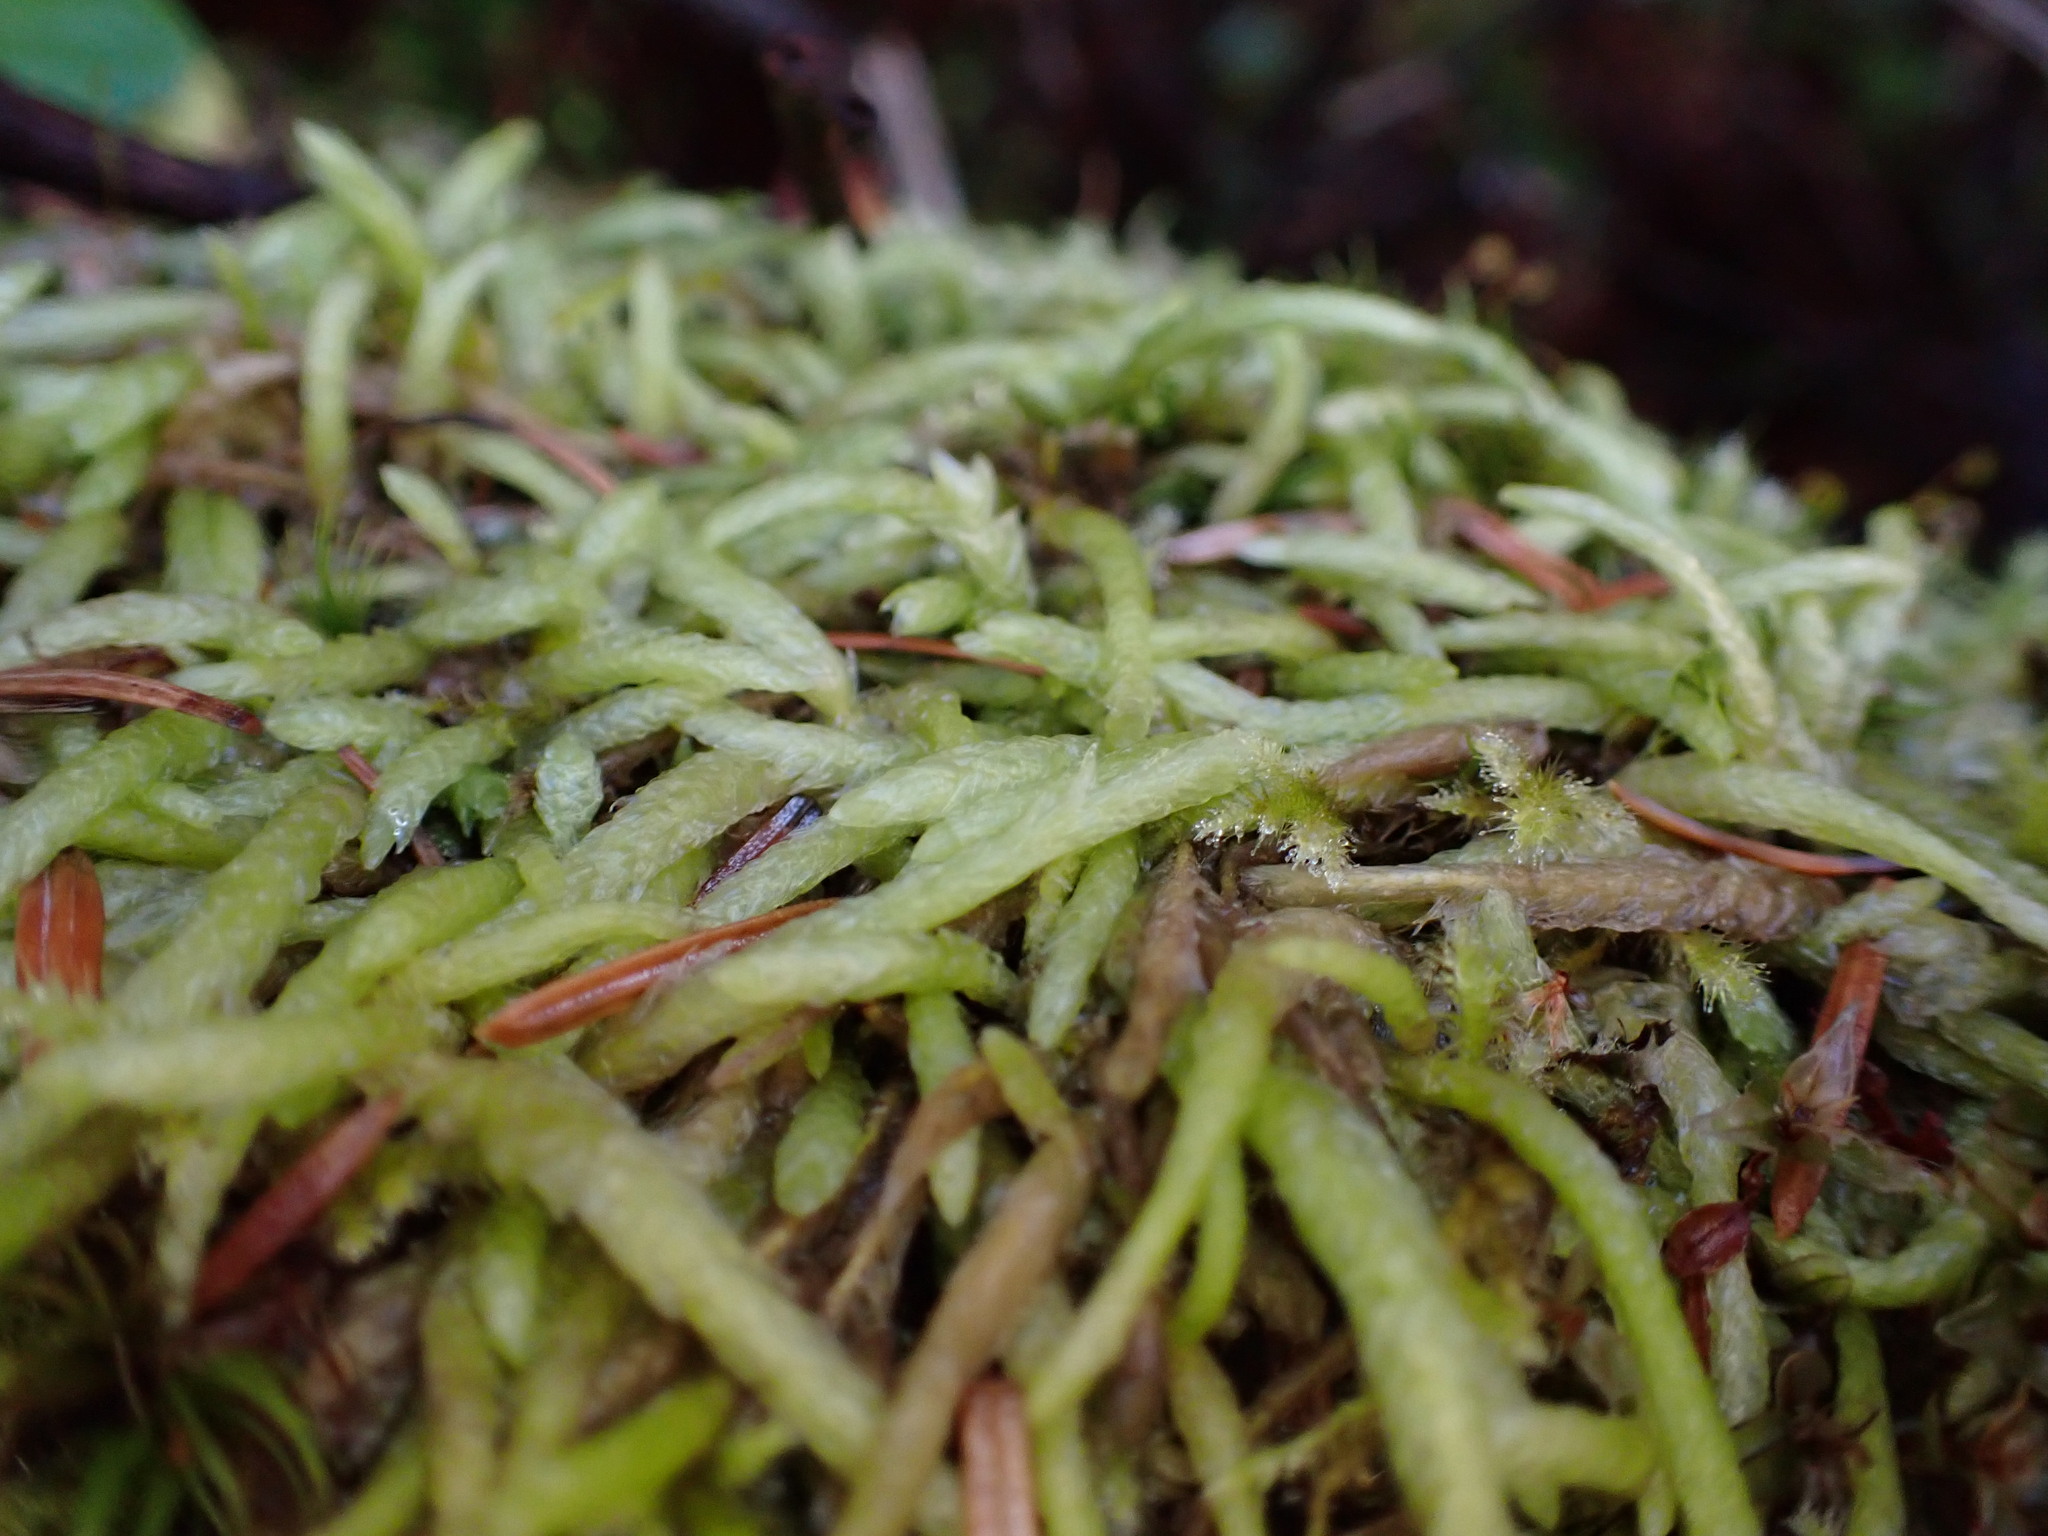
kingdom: Plantae
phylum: Bryophyta
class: Bryopsida
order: Hypnales
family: Plagiotheciaceae
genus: Plagiothecium
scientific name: Plagiothecium undulatum
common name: Waved silk-moss
